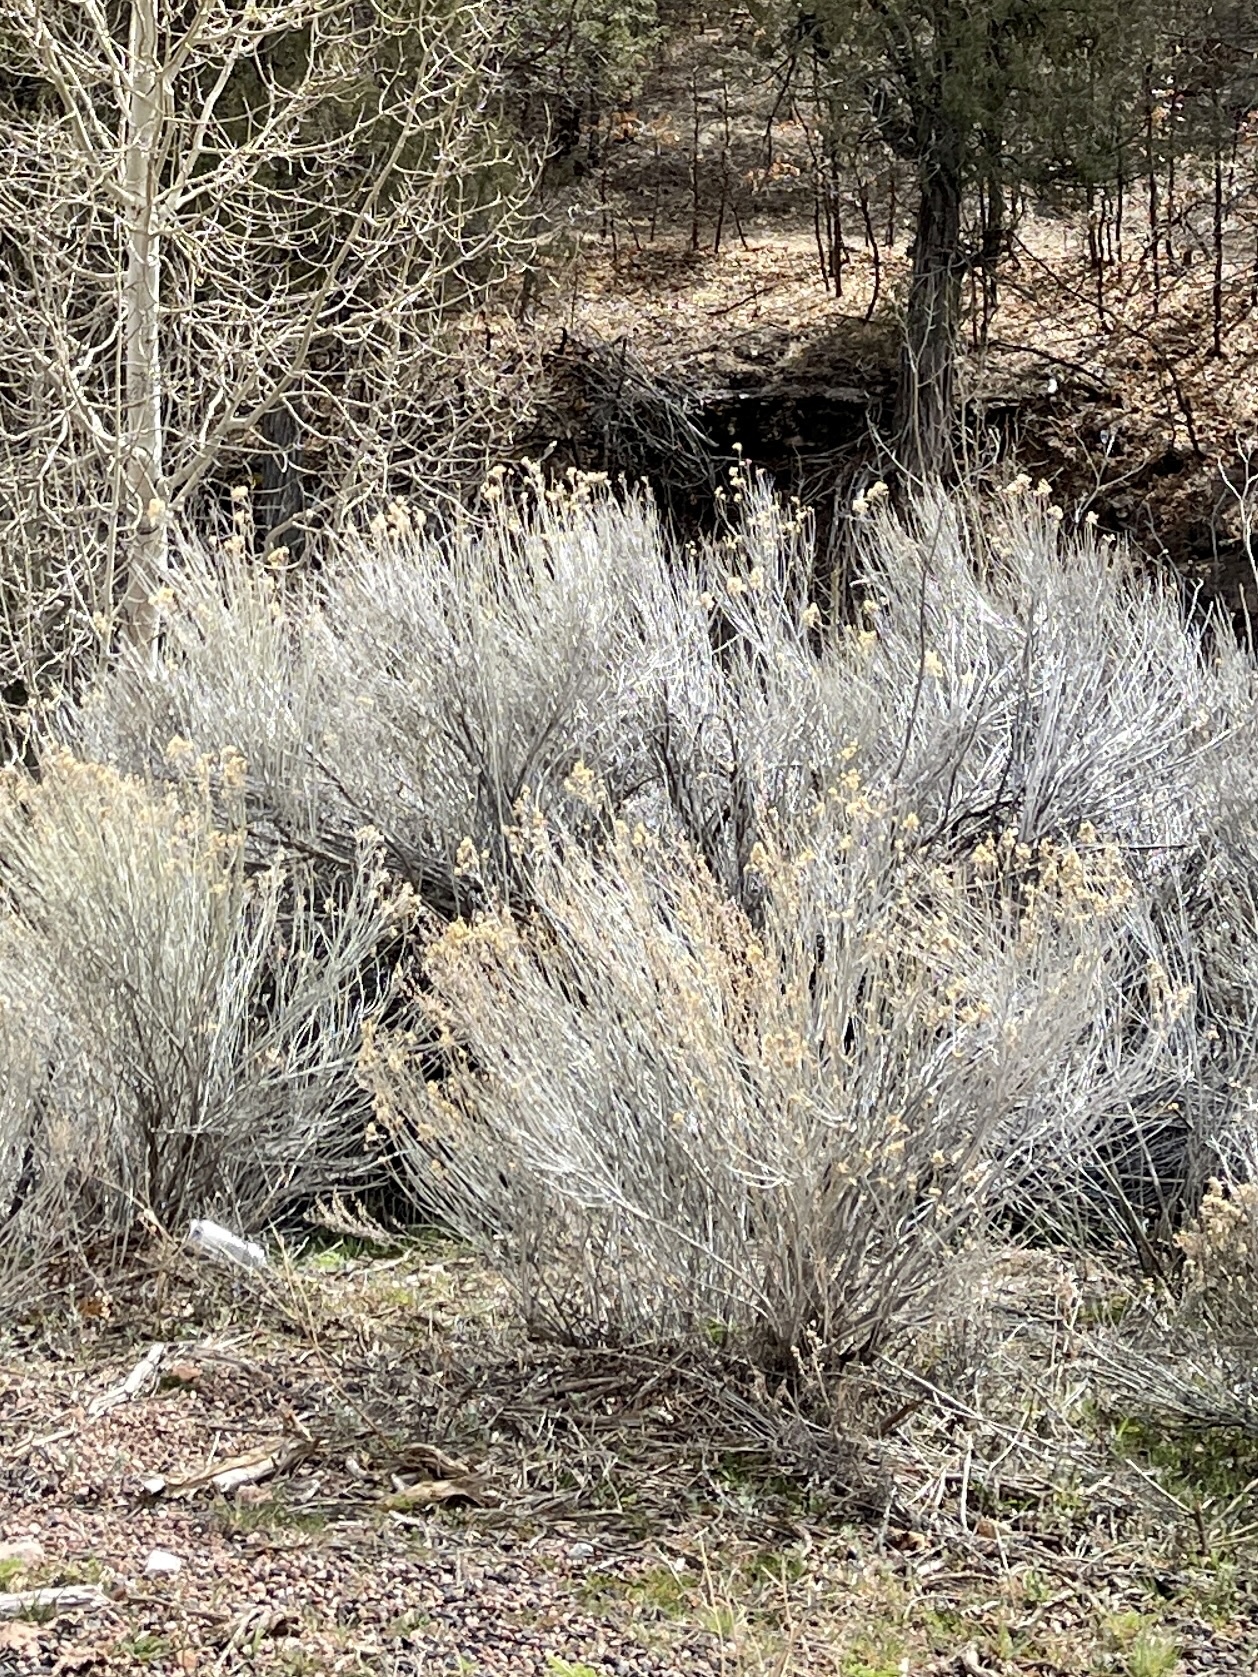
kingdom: Plantae
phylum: Tracheophyta
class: Magnoliopsida
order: Asterales
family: Asteraceae
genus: Ericameria
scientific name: Ericameria nauseosa
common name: Rubber rabbitbrush
